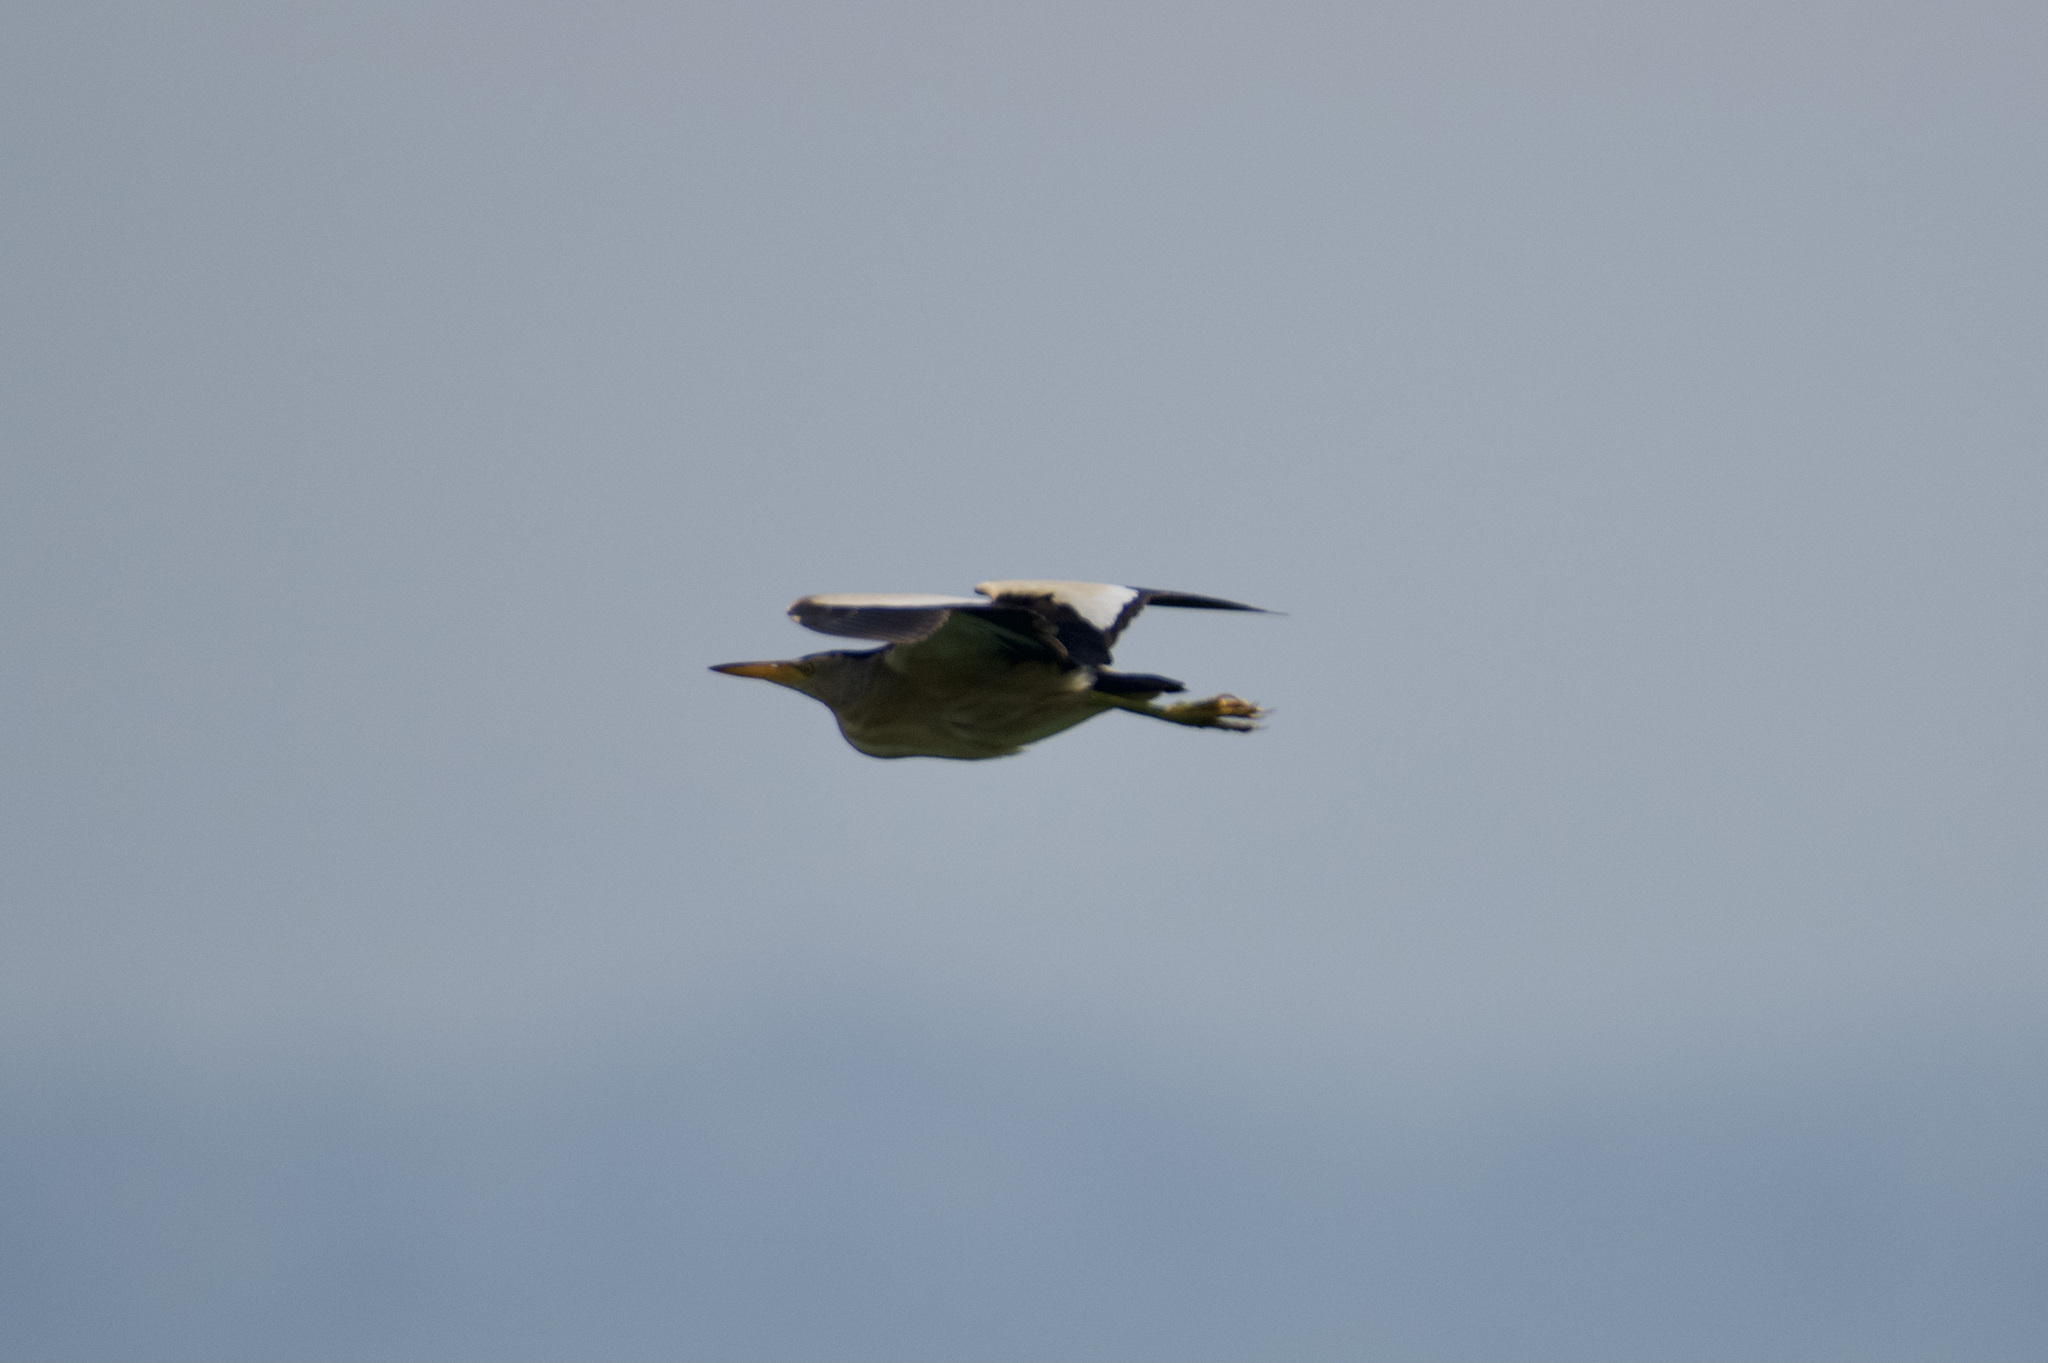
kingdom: Animalia
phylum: Chordata
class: Aves
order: Pelecaniformes
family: Ardeidae
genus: Ixobrychus
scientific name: Ixobrychus minutus
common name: Little bittern
